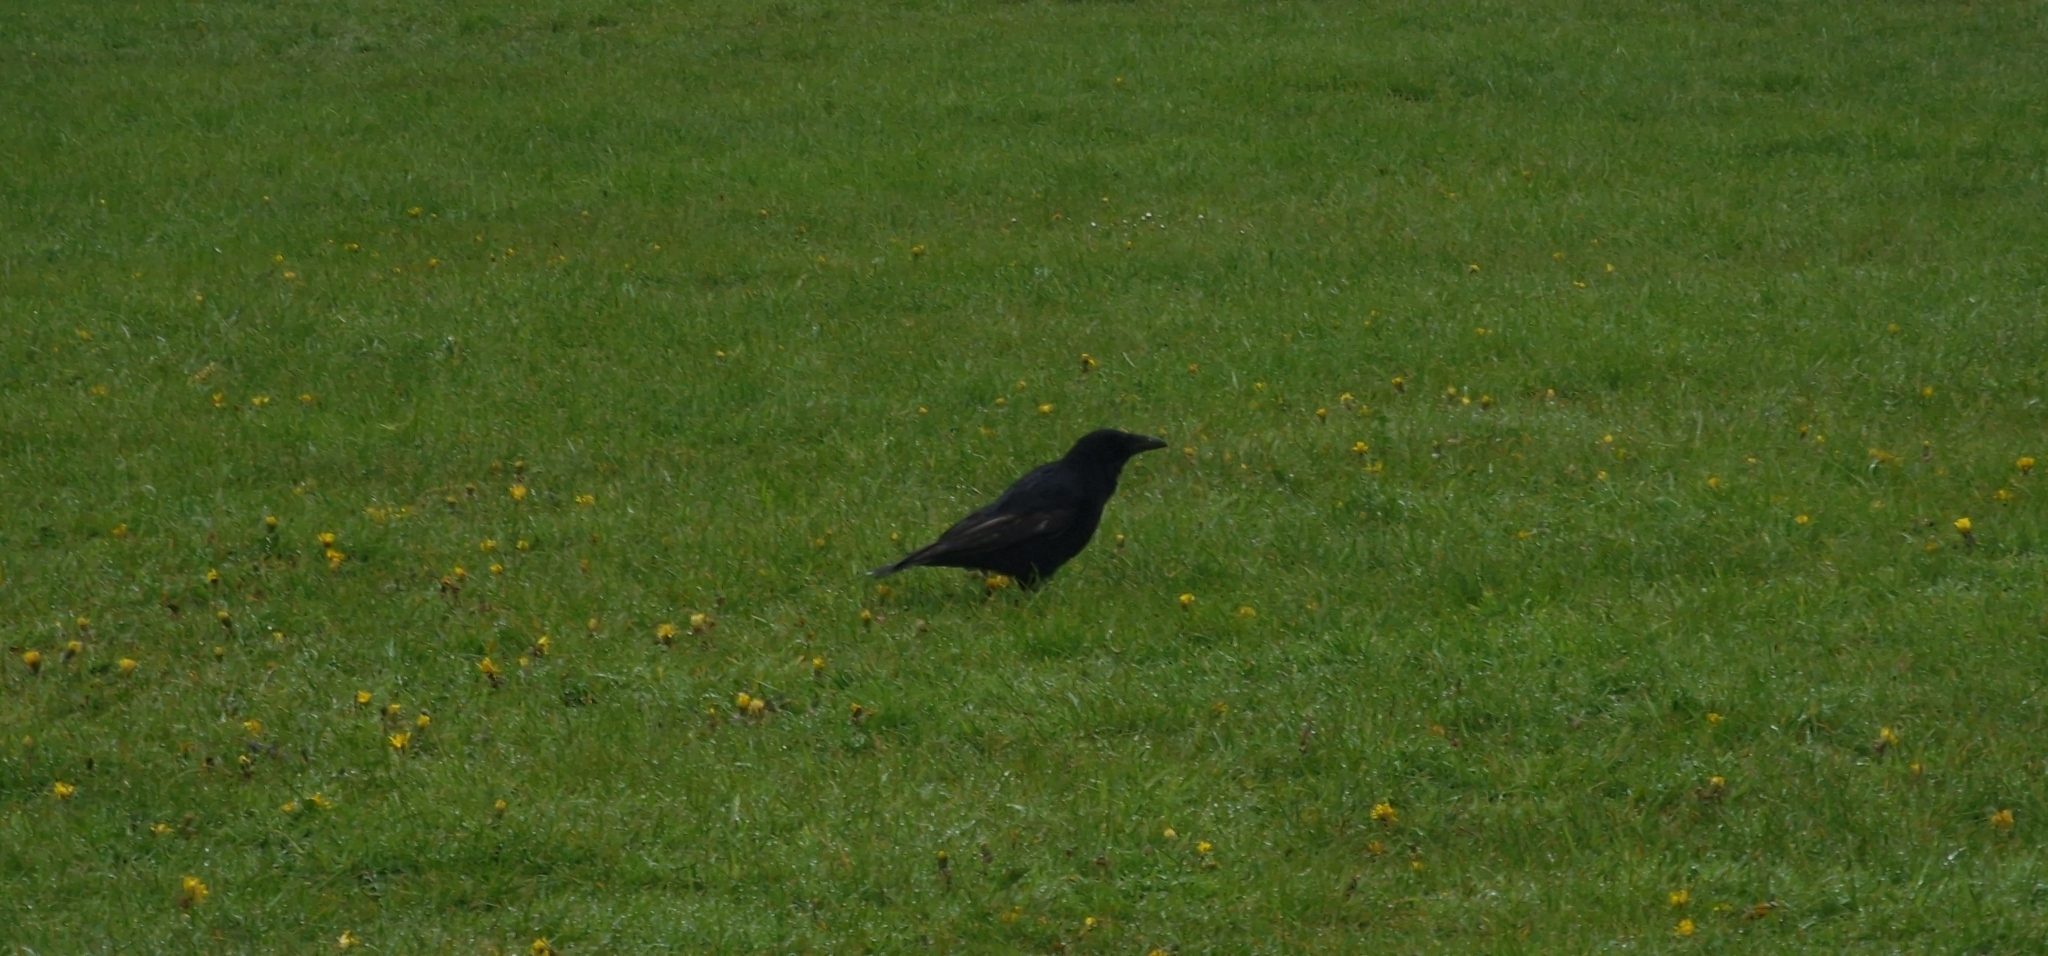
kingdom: Animalia
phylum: Chordata
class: Aves
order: Passeriformes
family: Corvidae
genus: Corvus
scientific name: Corvus corone
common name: Carrion crow
